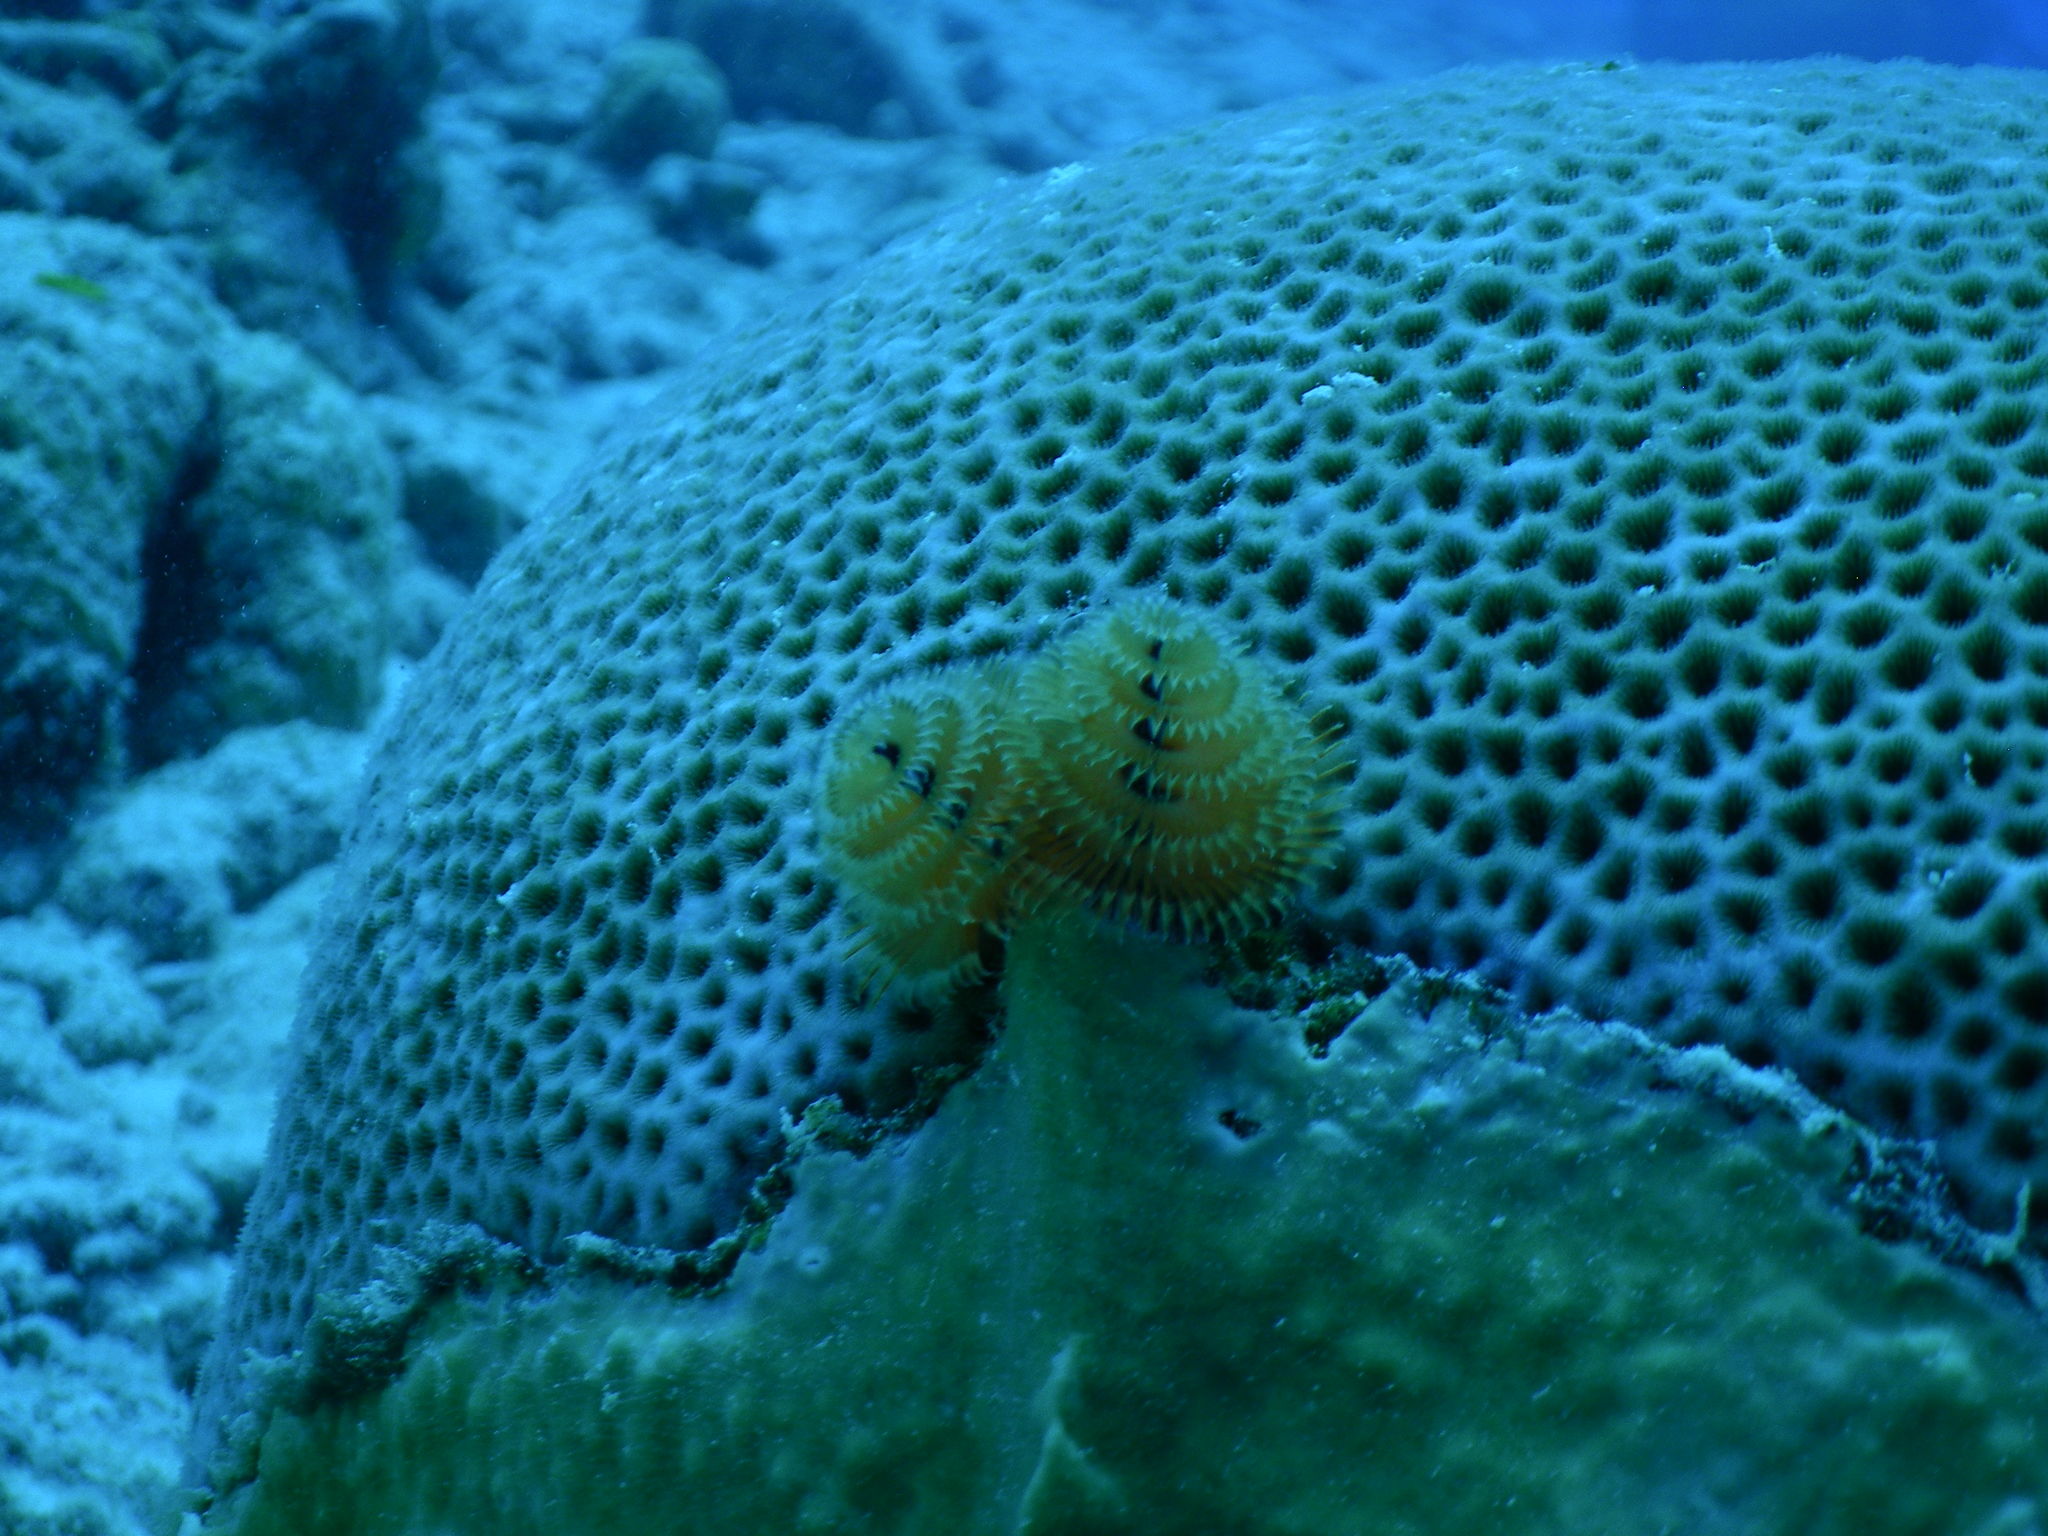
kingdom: Animalia
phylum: Annelida
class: Polychaeta
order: Sabellida
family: Serpulidae
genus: Spirobranchus
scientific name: Spirobranchus giganteus
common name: Christmas tree worm
